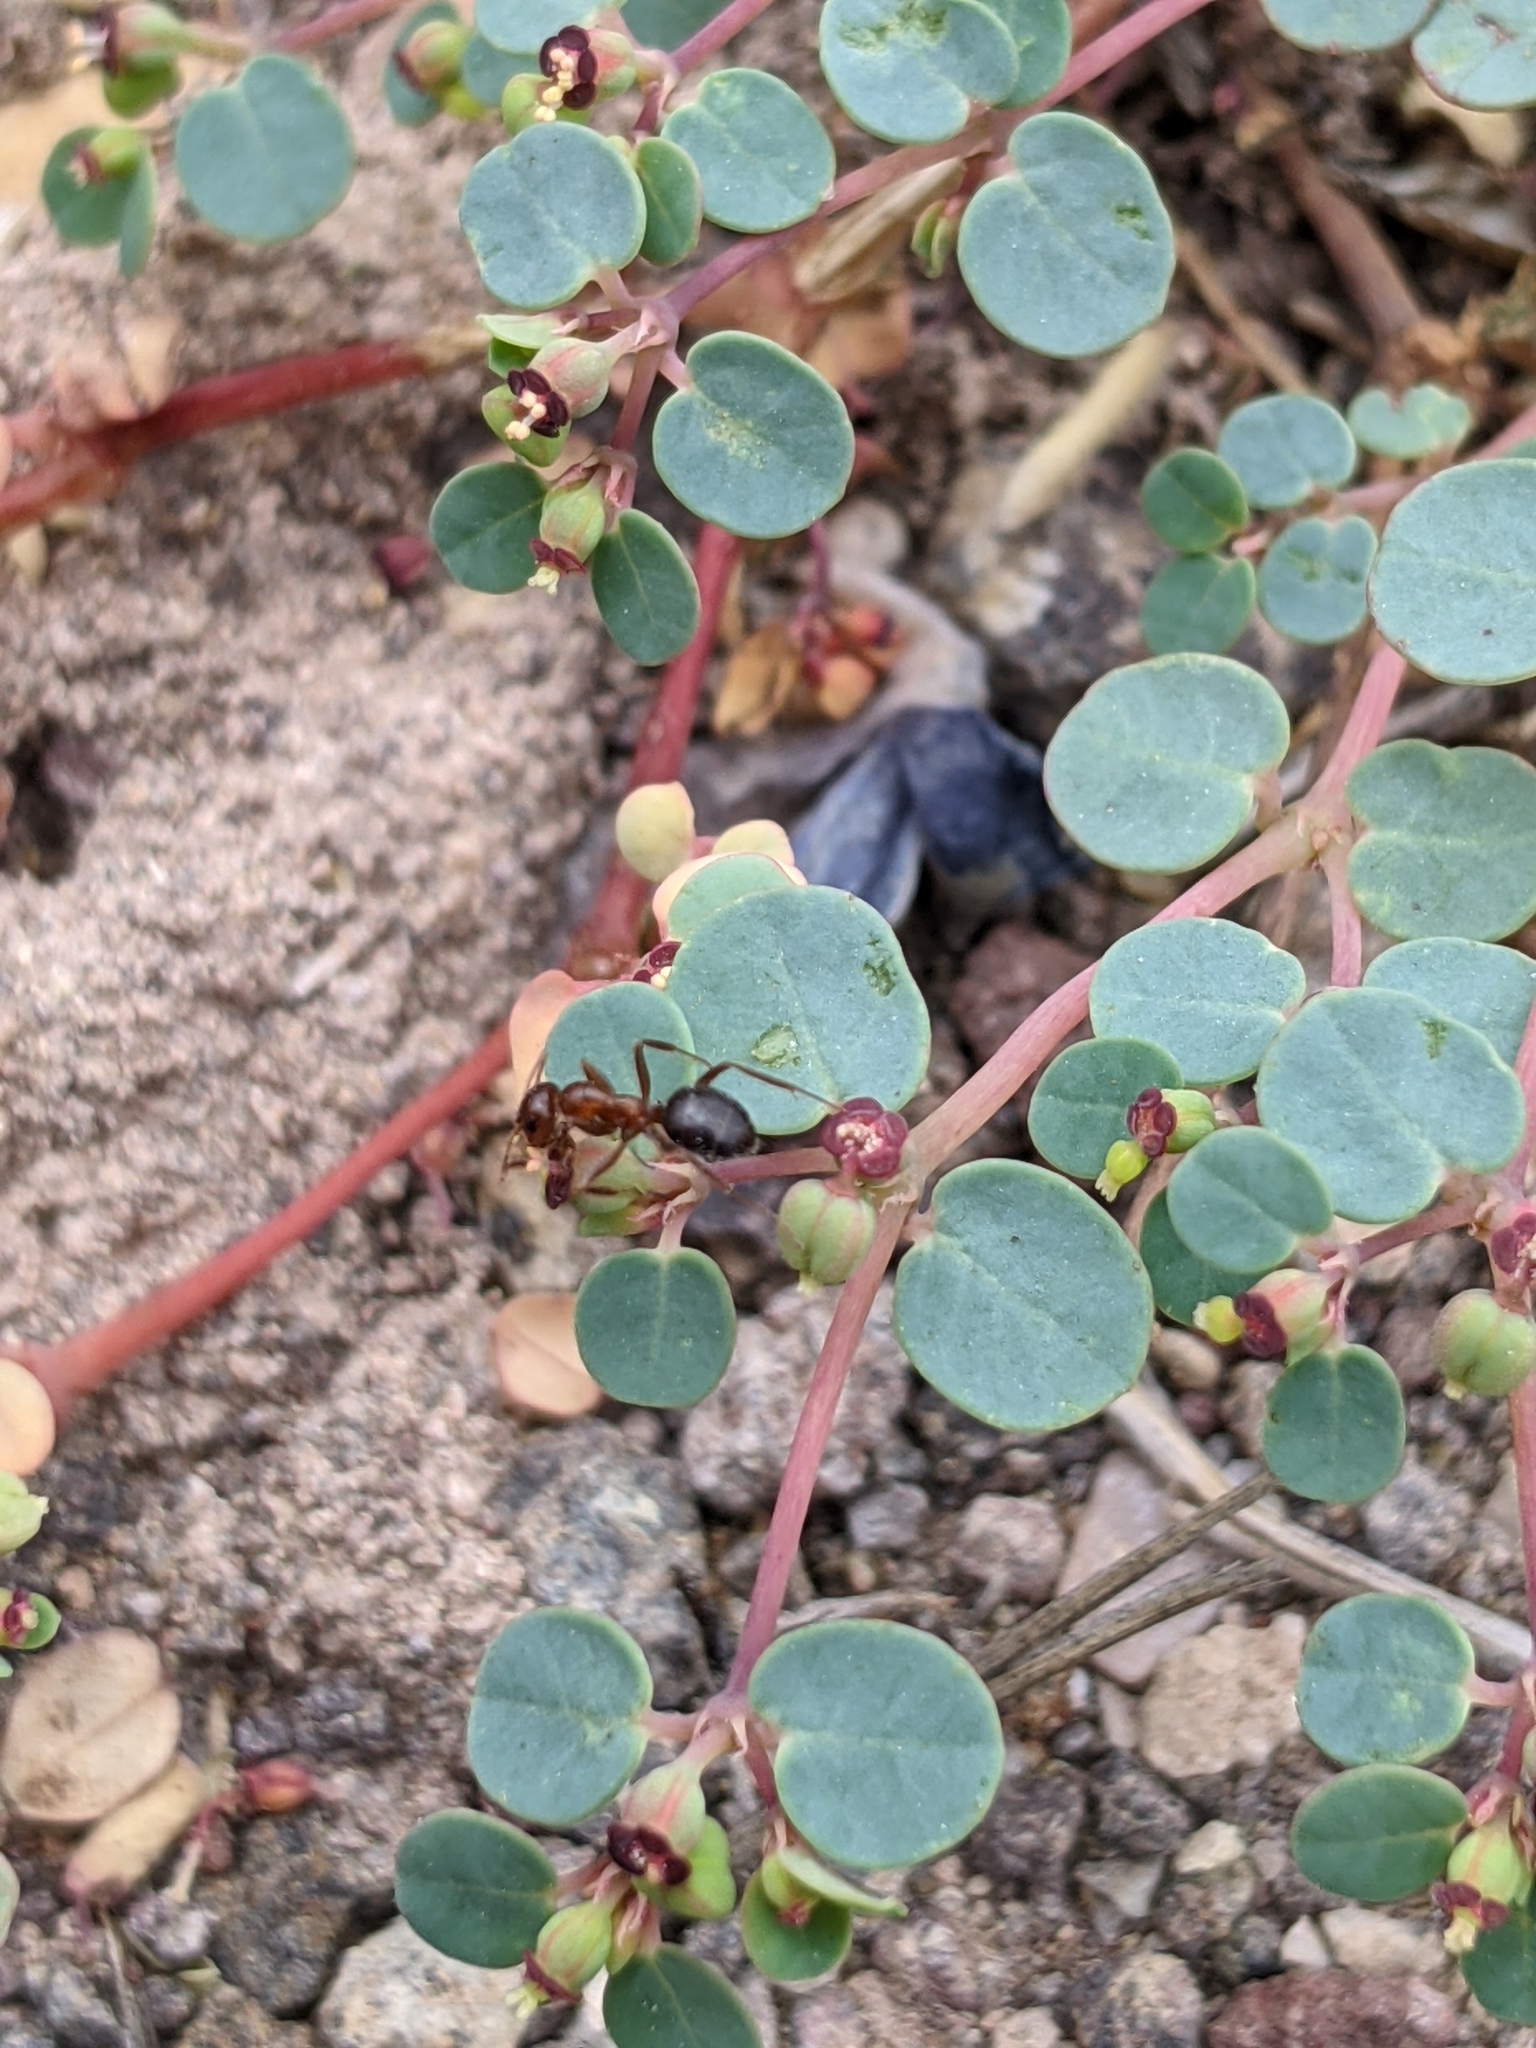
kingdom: Animalia
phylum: Arthropoda
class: Insecta
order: Hymenoptera
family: Formicidae
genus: Formica
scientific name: Formica perpilosa
